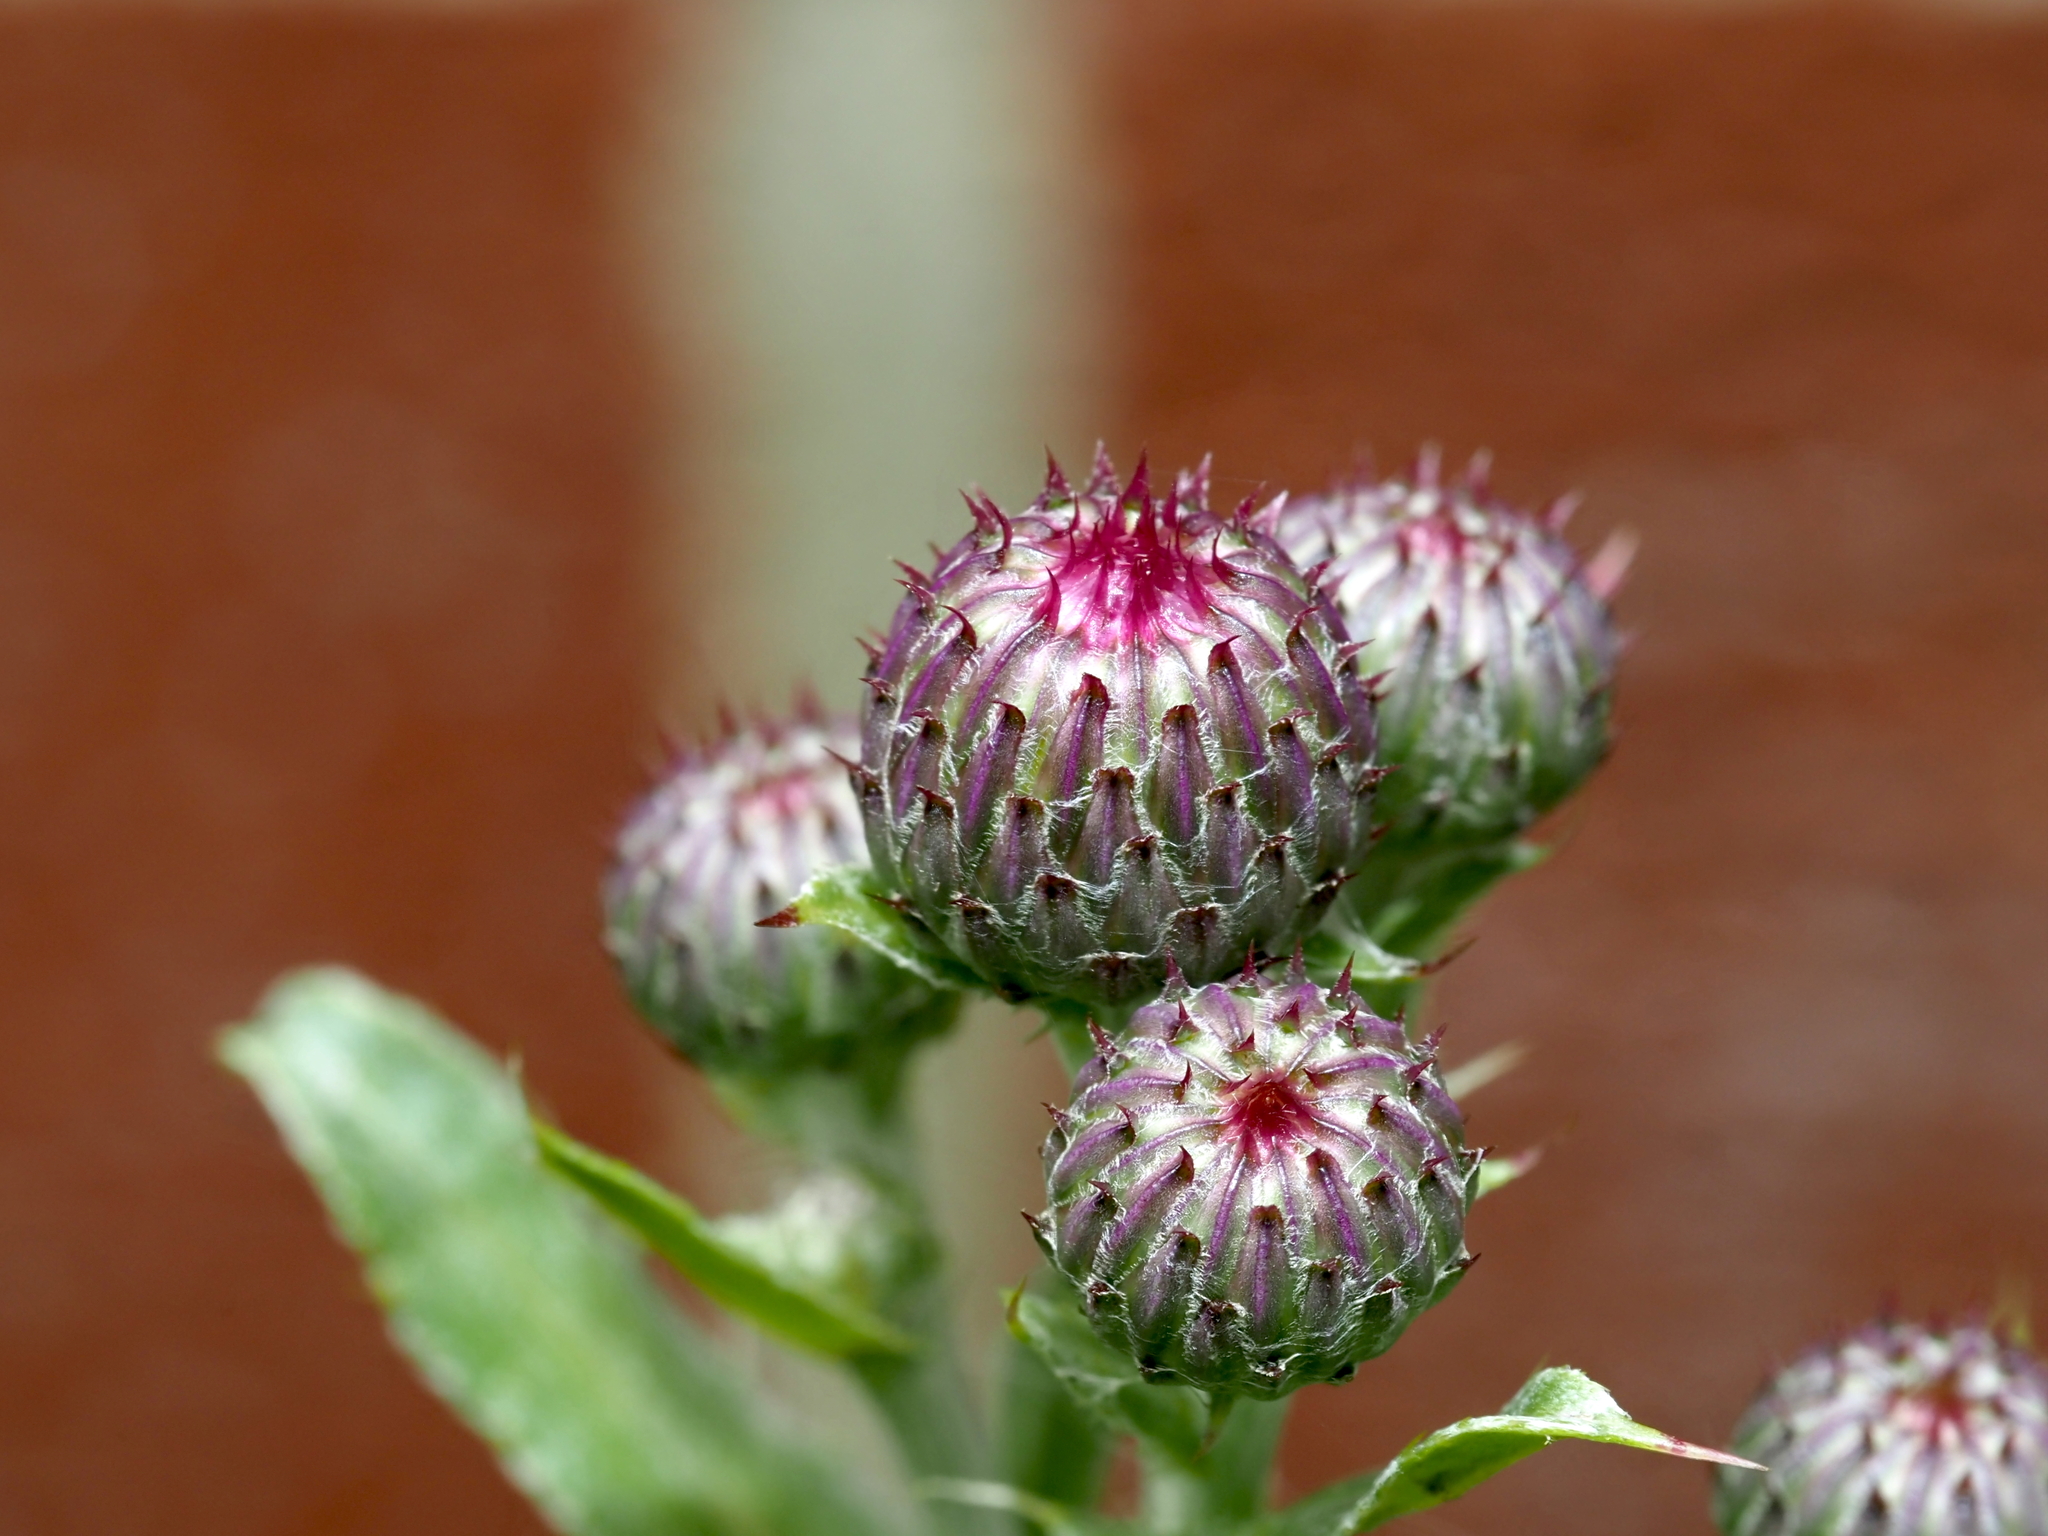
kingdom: Plantae
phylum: Tracheophyta
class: Magnoliopsida
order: Asterales
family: Asteraceae
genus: Cirsium
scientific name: Cirsium arvense
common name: Creeping thistle
